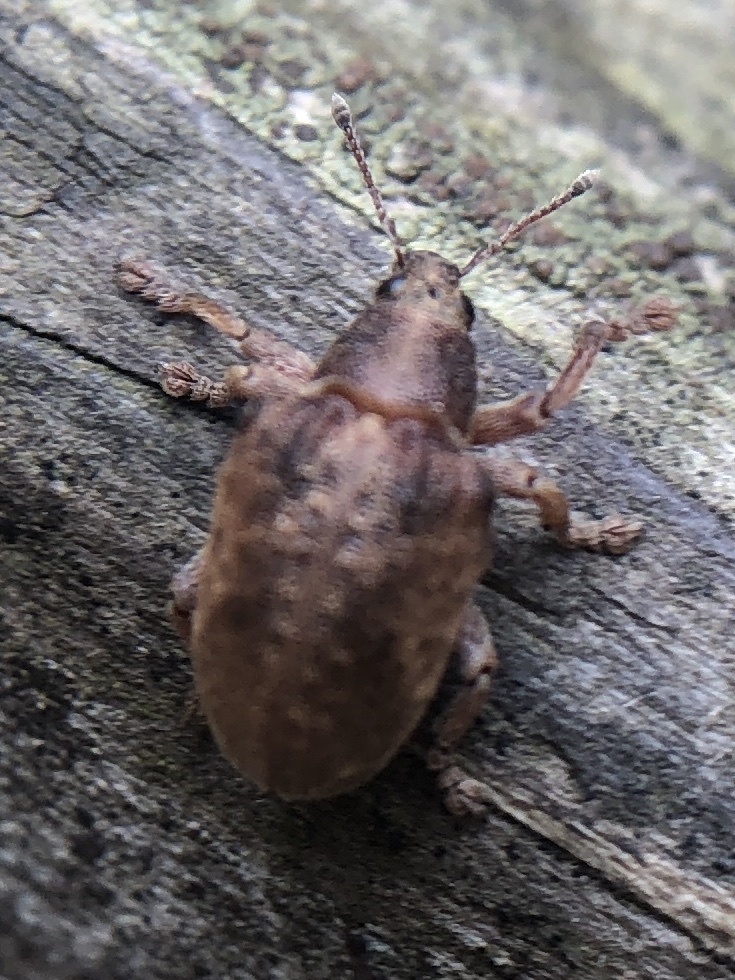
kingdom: Animalia
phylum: Arthropoda
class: Insecta
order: Coleoptera
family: Curculionidae
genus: Gonipterus
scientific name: Gonipterus platensis
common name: Eucalyptus snout beetle
